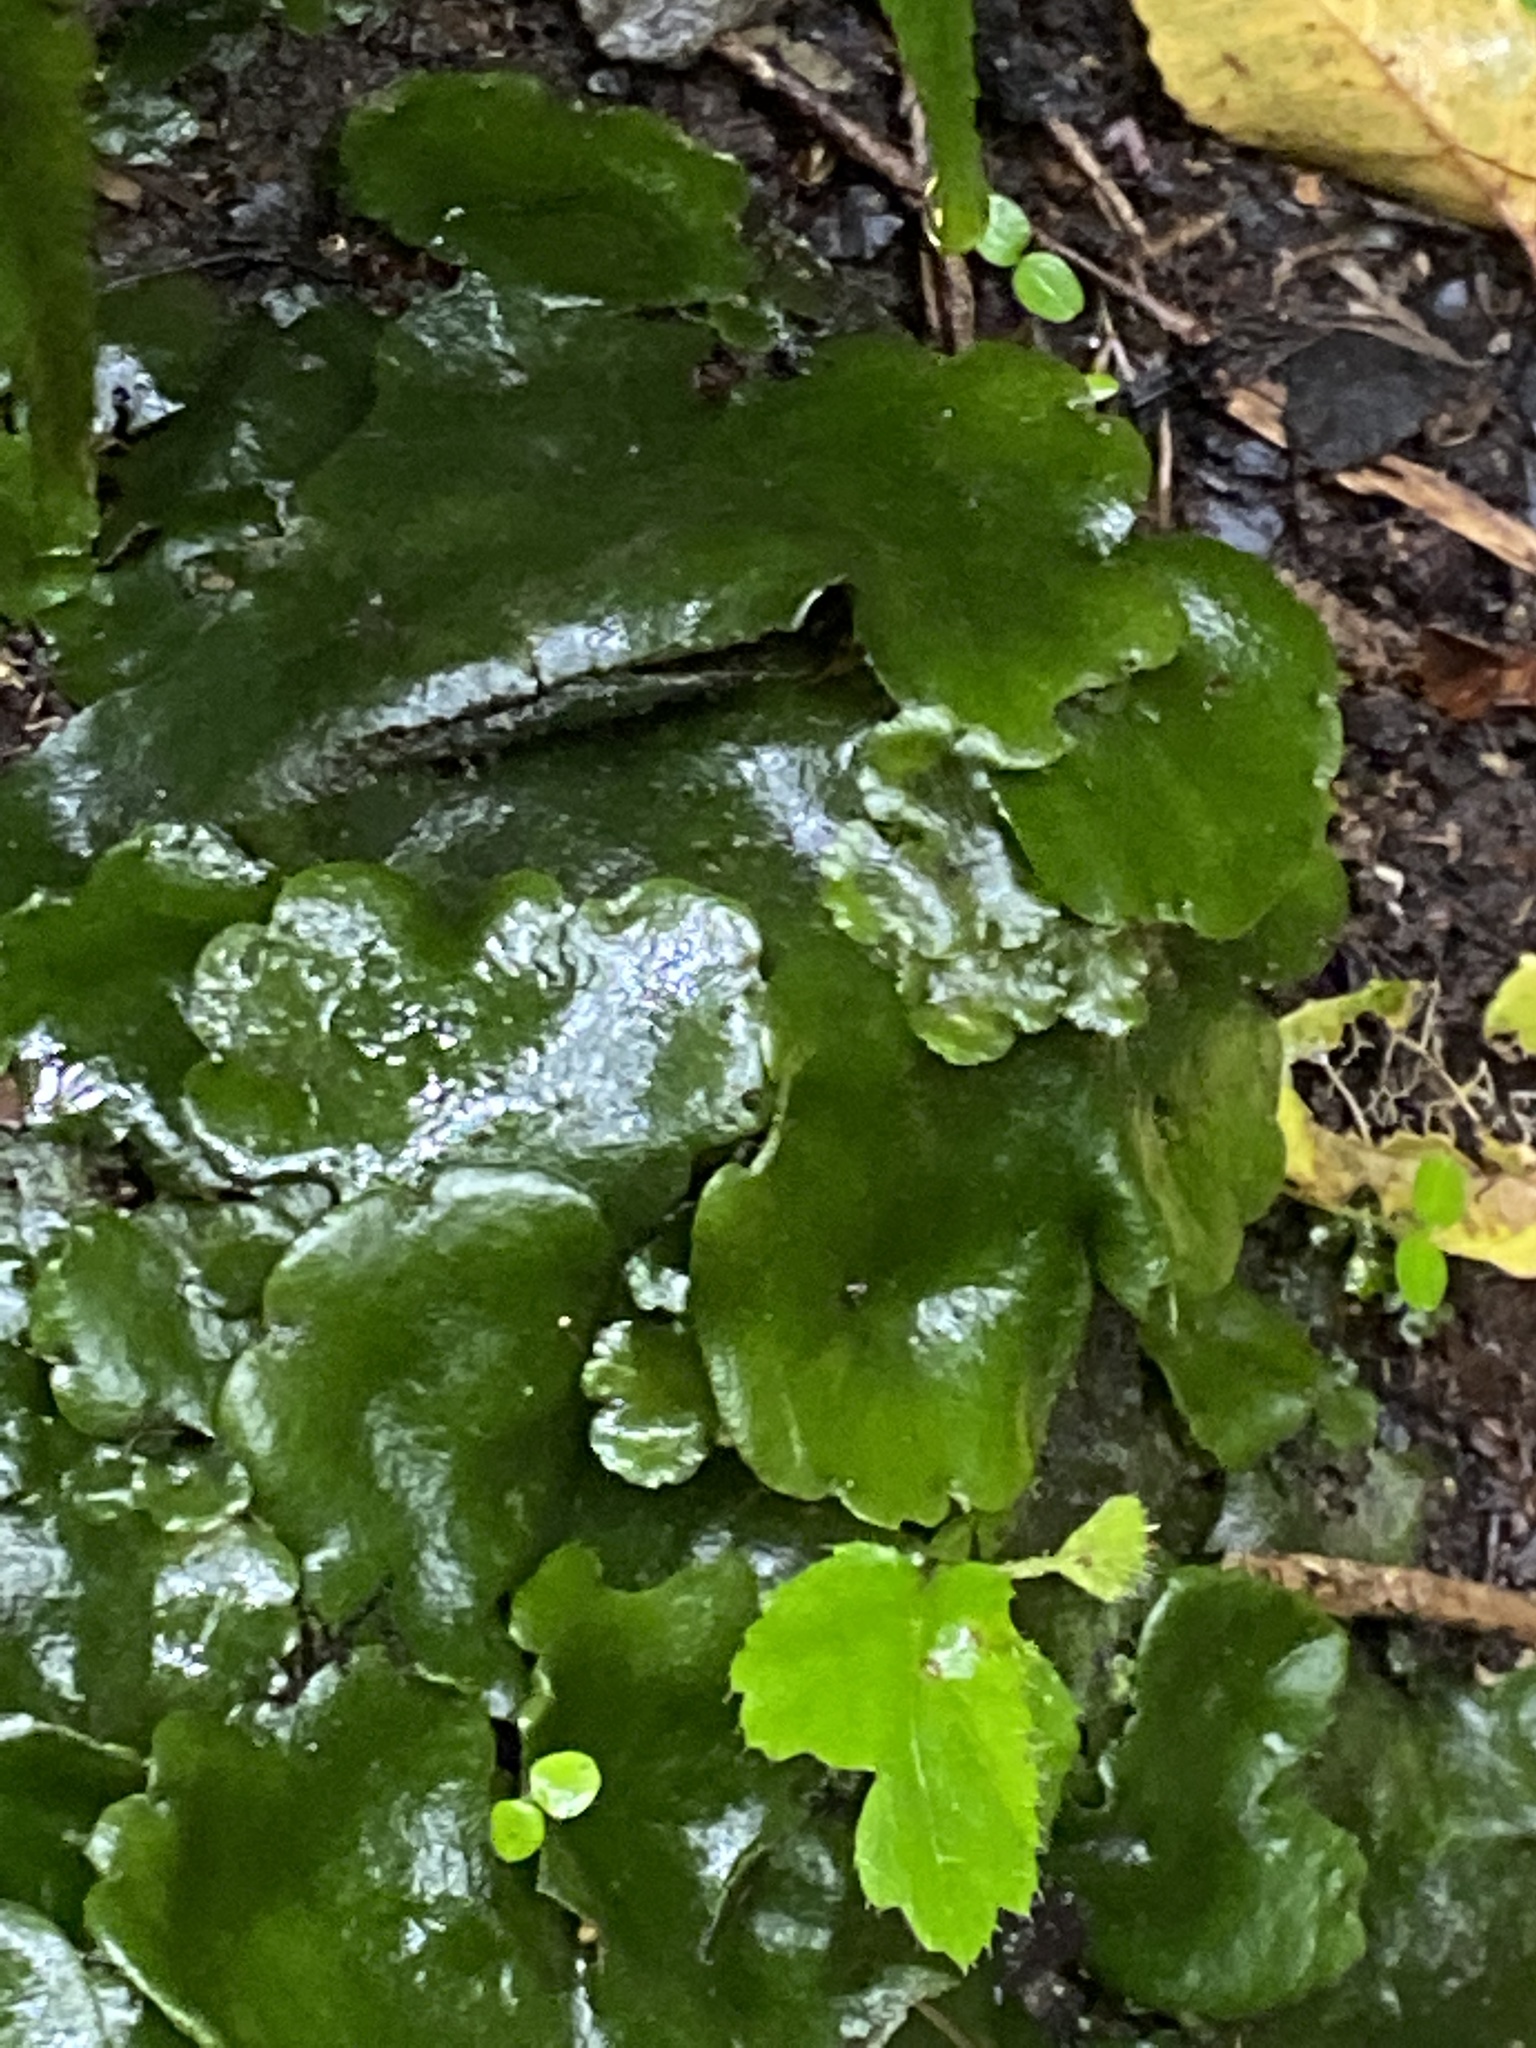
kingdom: Plantae
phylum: Marchantiophyta
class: Marchantiopsida
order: Marchantiales
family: Monocleaceae
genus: Monoclea
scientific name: Monoclea forsteri
